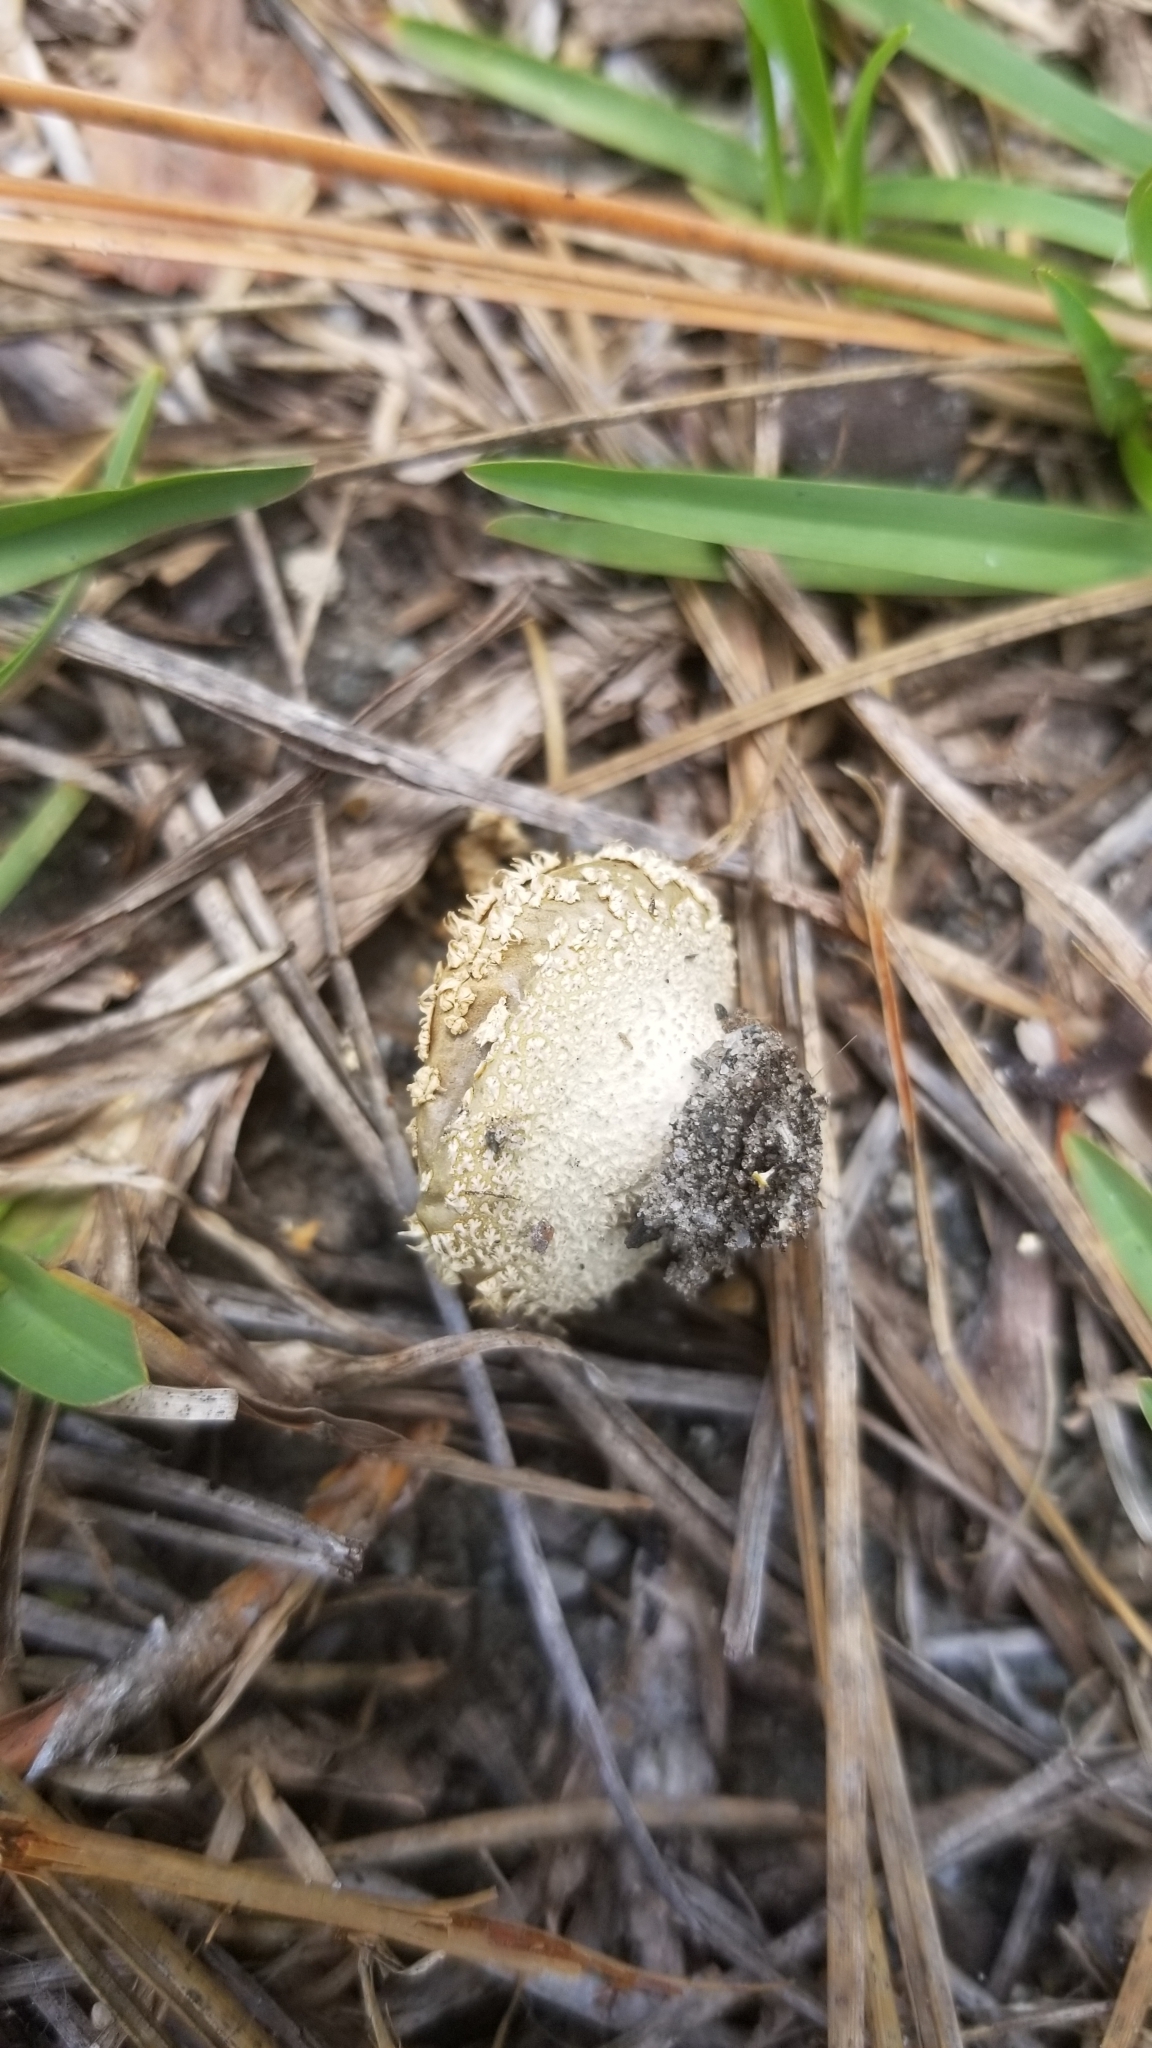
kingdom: Fungi
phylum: Basidiomycota
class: Agaricomycetes
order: Agaricales
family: Agaricaceae
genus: Lycoperdon
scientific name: Lycoperdon marginatum
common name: Peeling puffball
